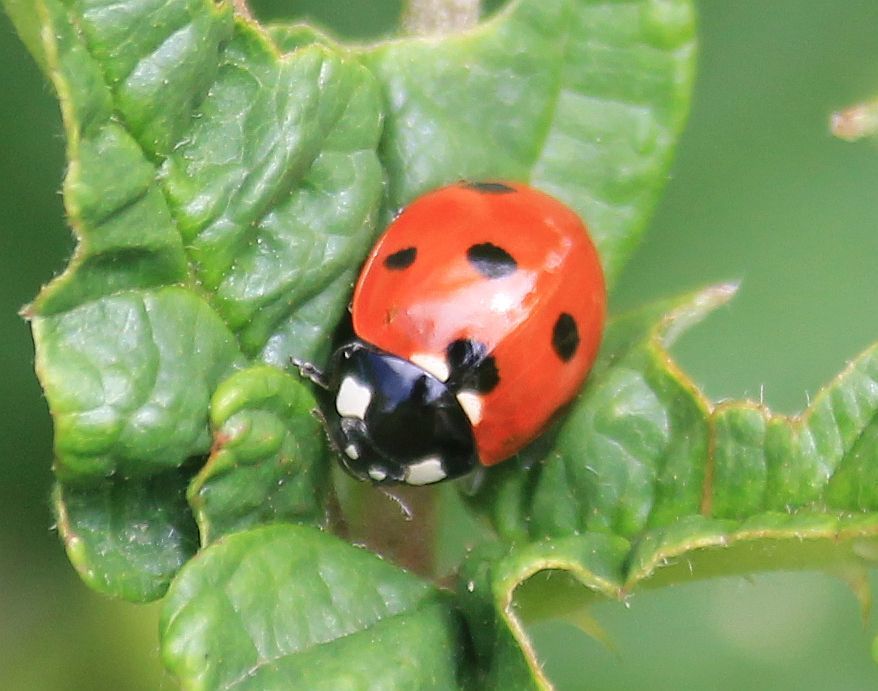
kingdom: Animalia
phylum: Arthropoda
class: Insecta
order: Coleoptera
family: Coccinellidae
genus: Coccinella
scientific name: Coccinella septempunctata
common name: Sevenspotted lady beetle
